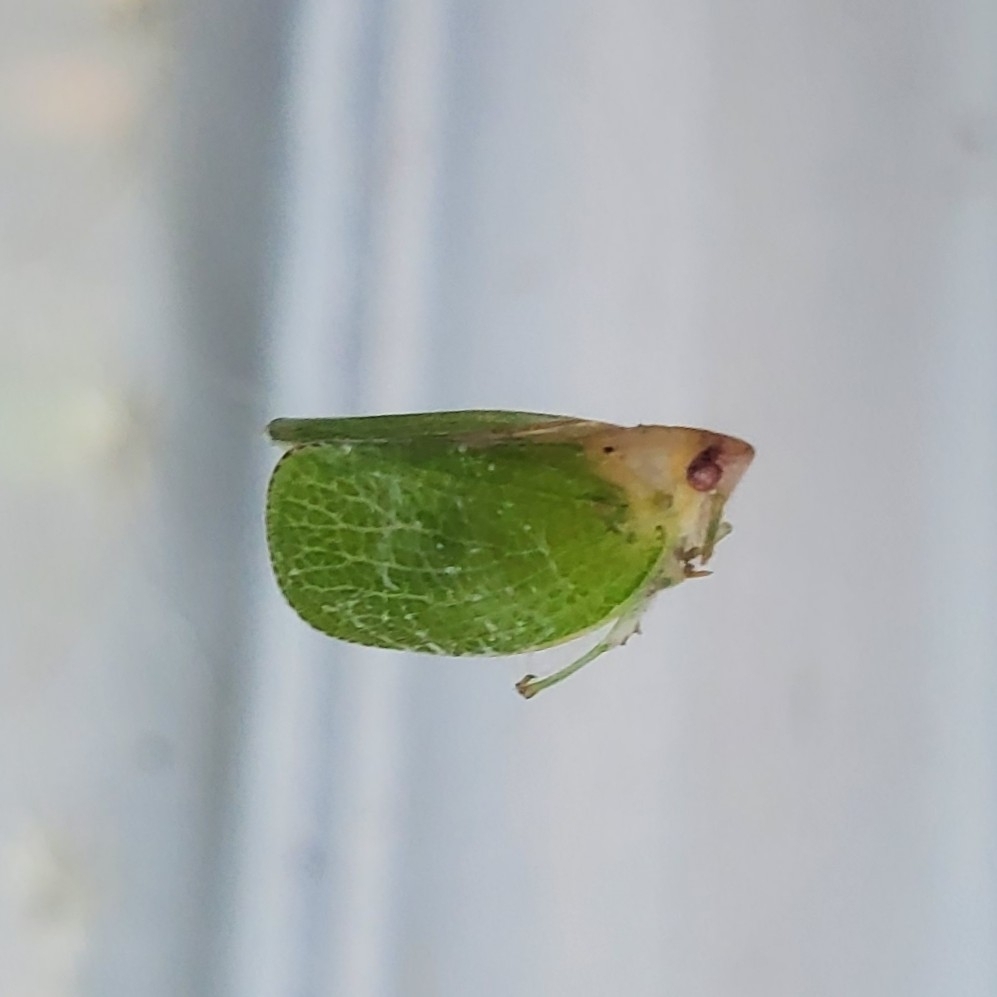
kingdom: Animalia
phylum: Arthropoda
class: Insecta
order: Hemiptera
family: Acanaloniidae
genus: Acanalonia
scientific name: Acanalonia conica
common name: Green cone-headed planthopper
